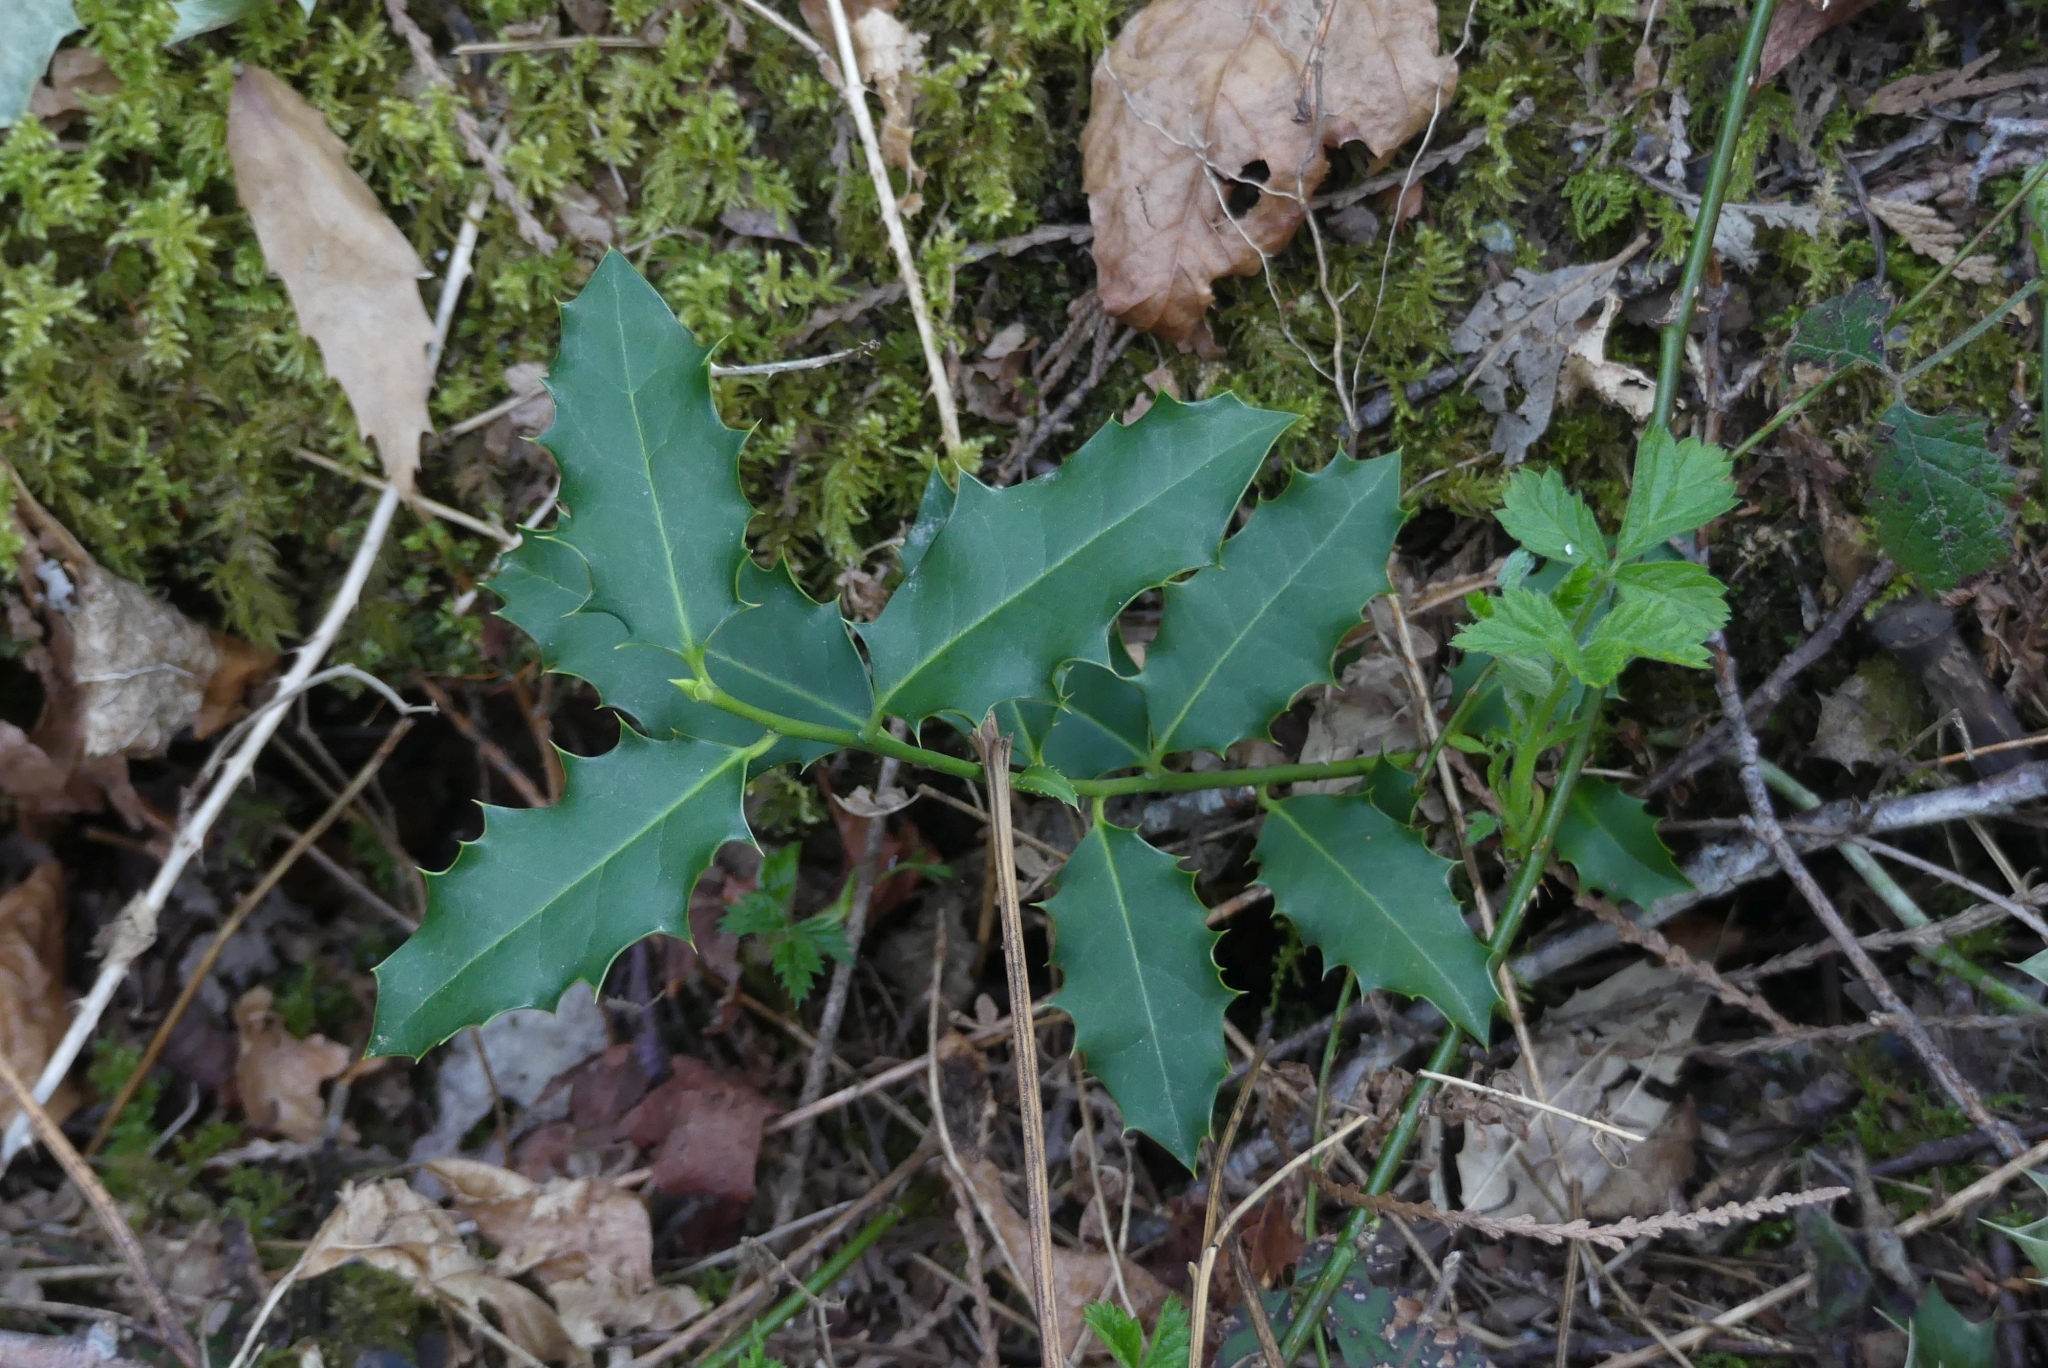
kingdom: Plantae
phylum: Tracheophyta
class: Magnoliopsida
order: Aquifoliales
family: Aquifoliaceae
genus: Ilex
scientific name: Ilex aquifolium
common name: English holly
